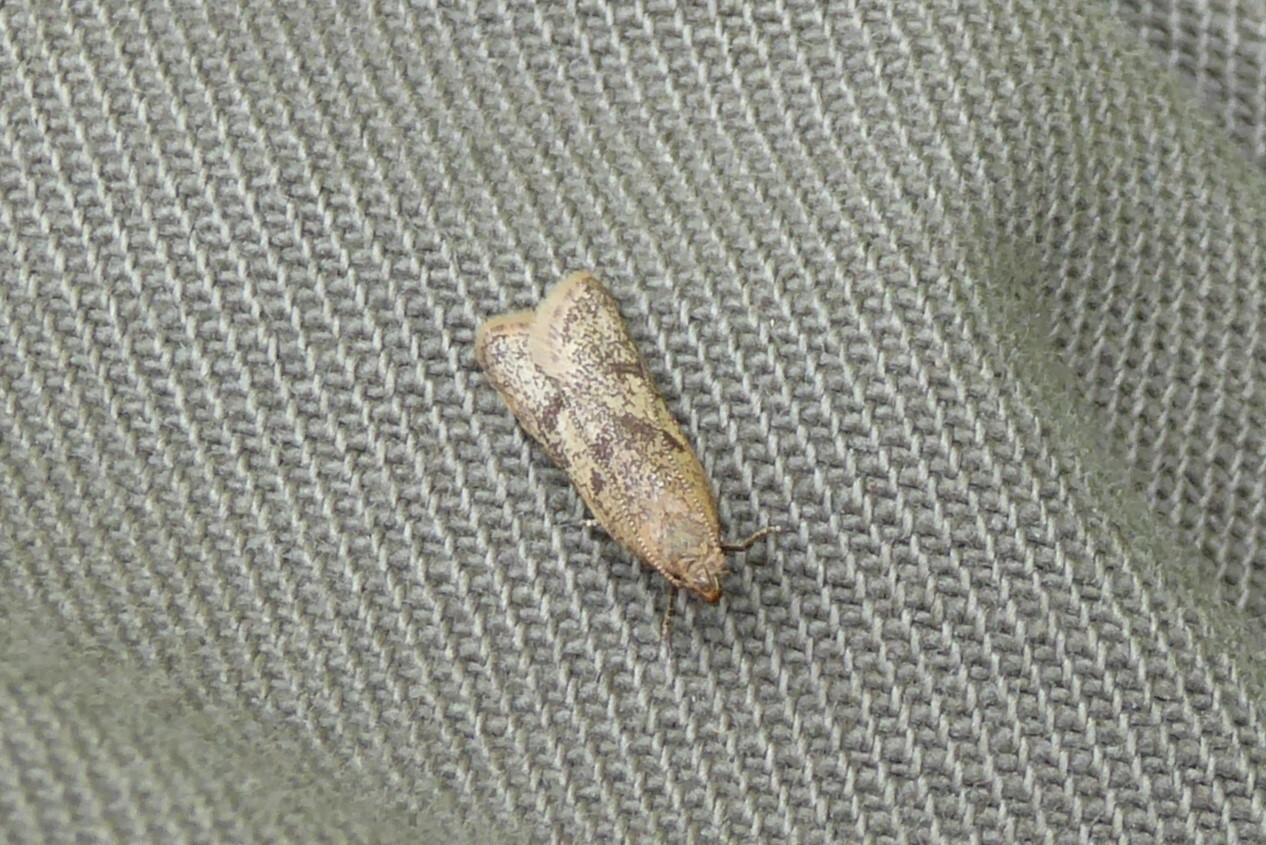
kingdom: Animalia
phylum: Arthropoda
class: Insecta
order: Lepidoptera
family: Oecophoridae
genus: Gymnobathra
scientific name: Gymnobathra tholodella
